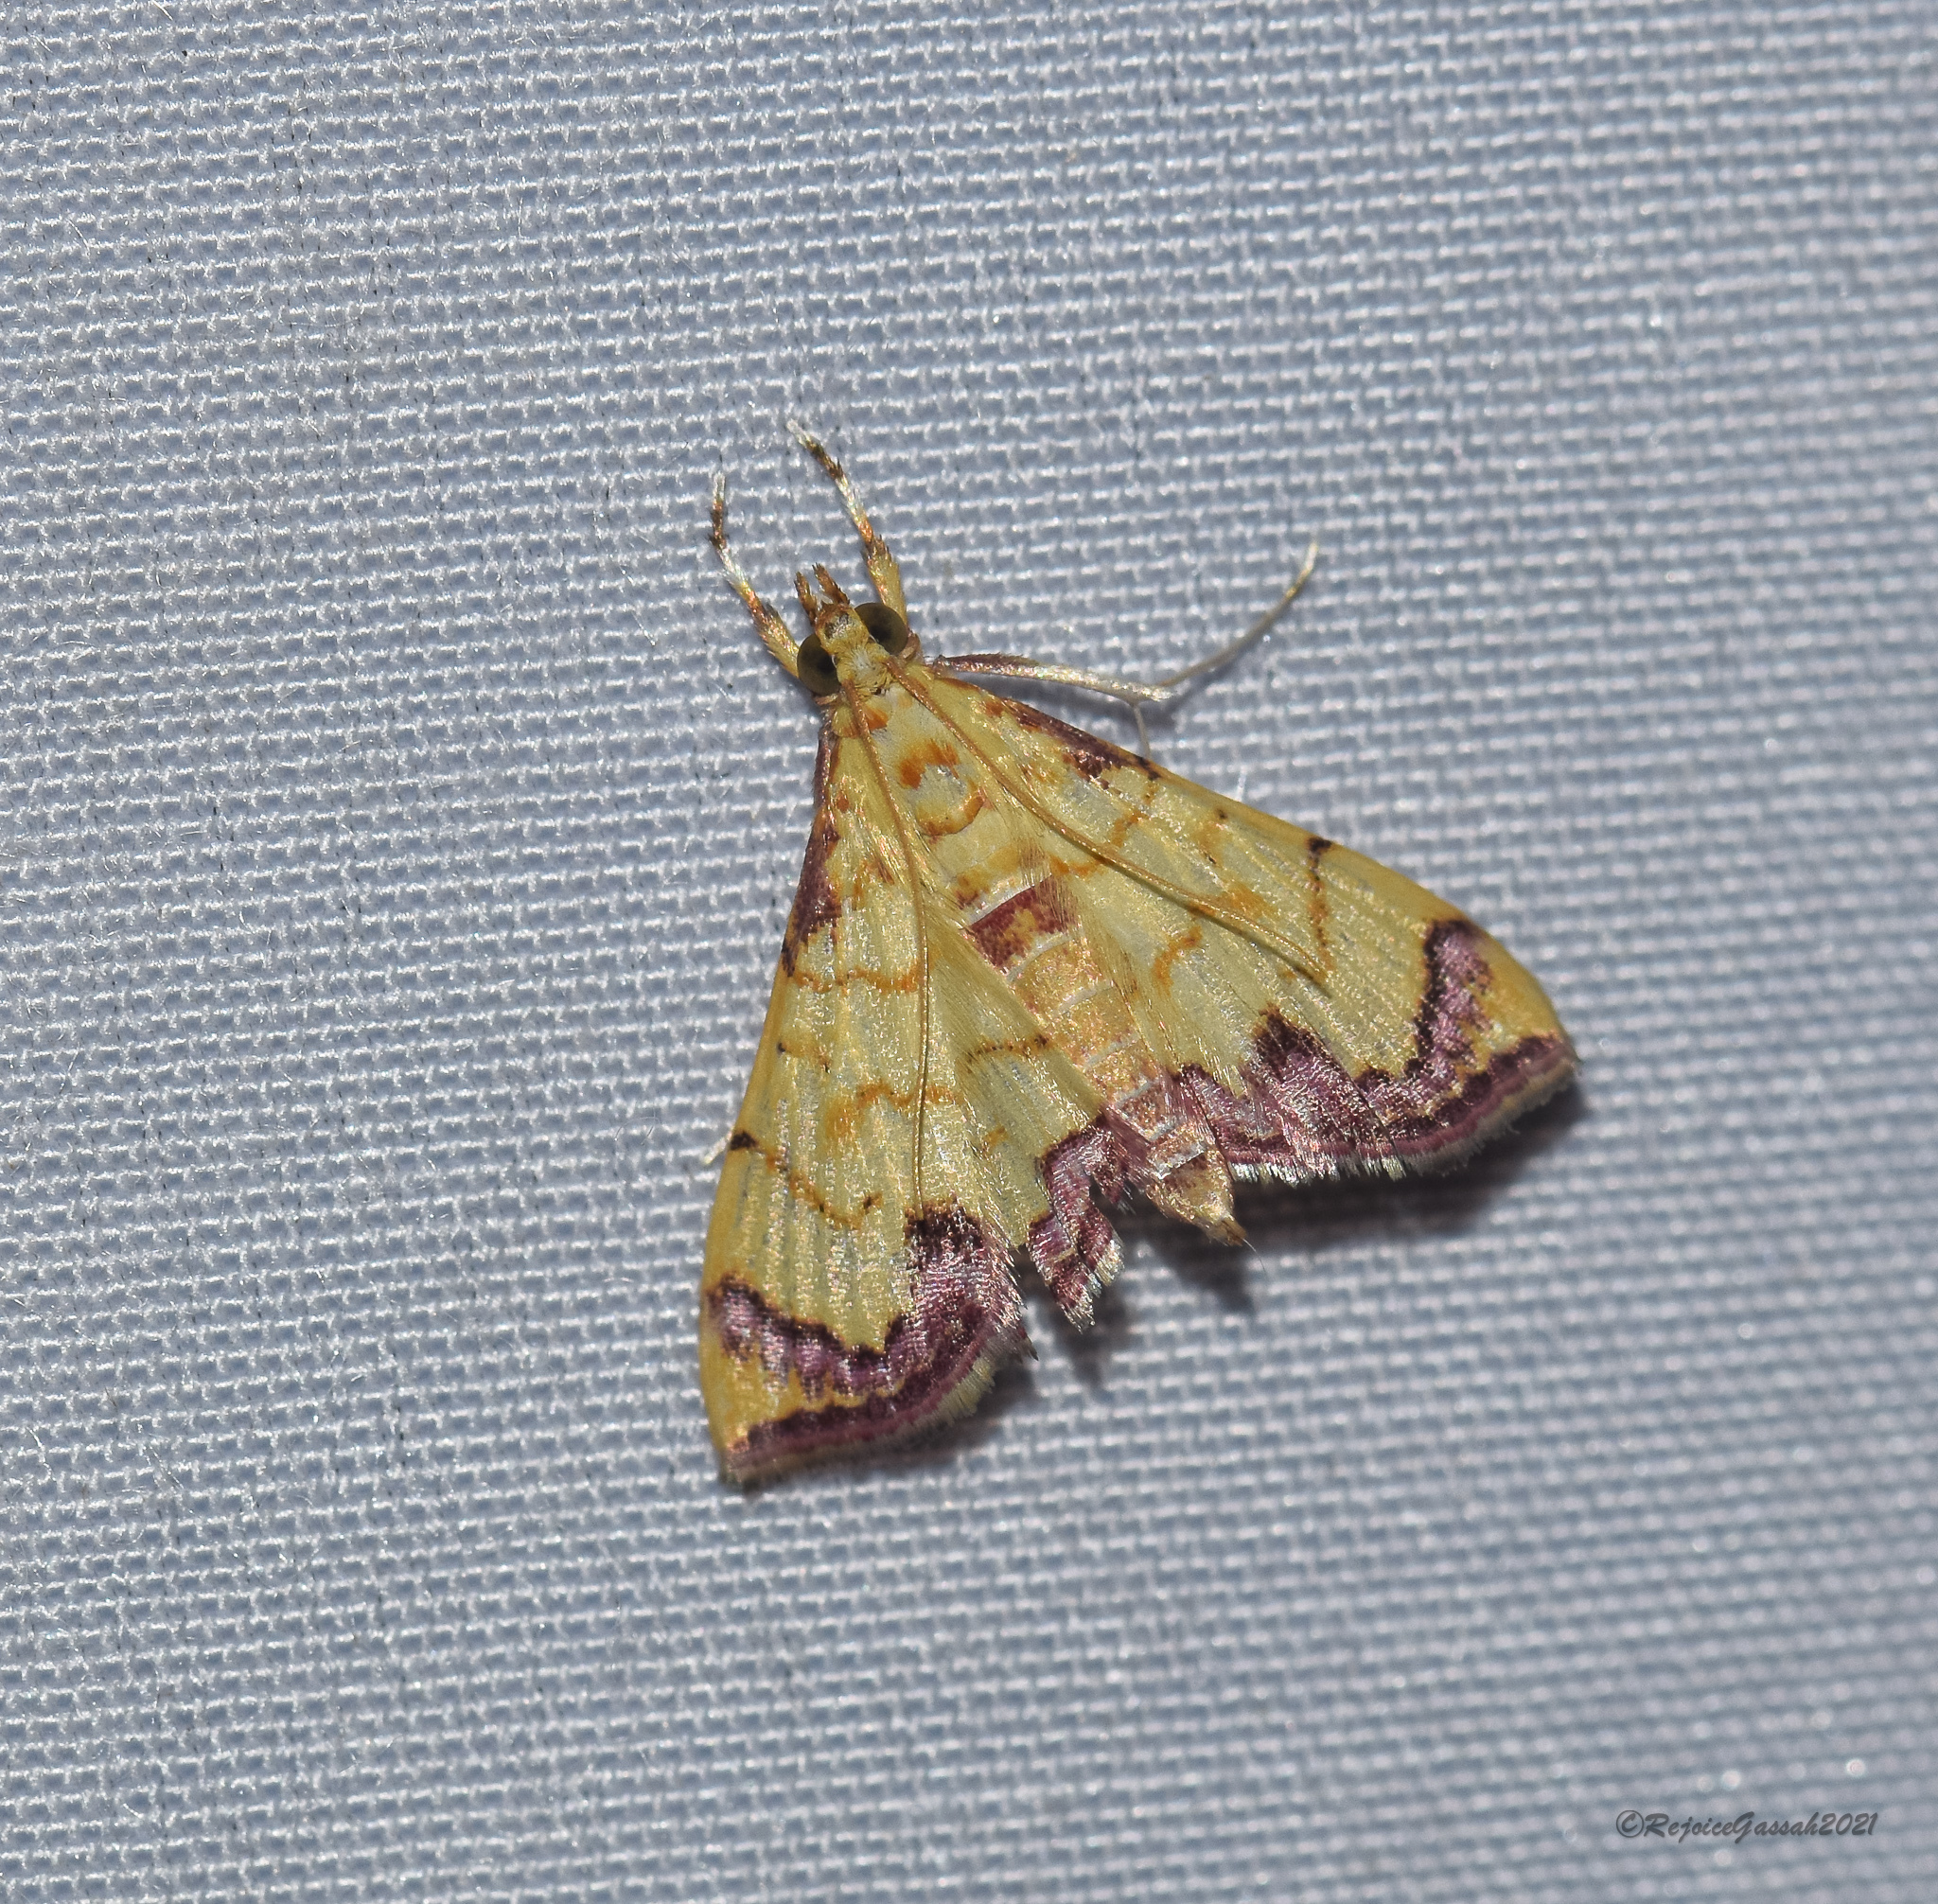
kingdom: Animalia
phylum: Arthropoda
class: Insecta
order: Lepidoptera
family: Crambidae
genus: Hyalobathra
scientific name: Hyalobathra phoenicozona
